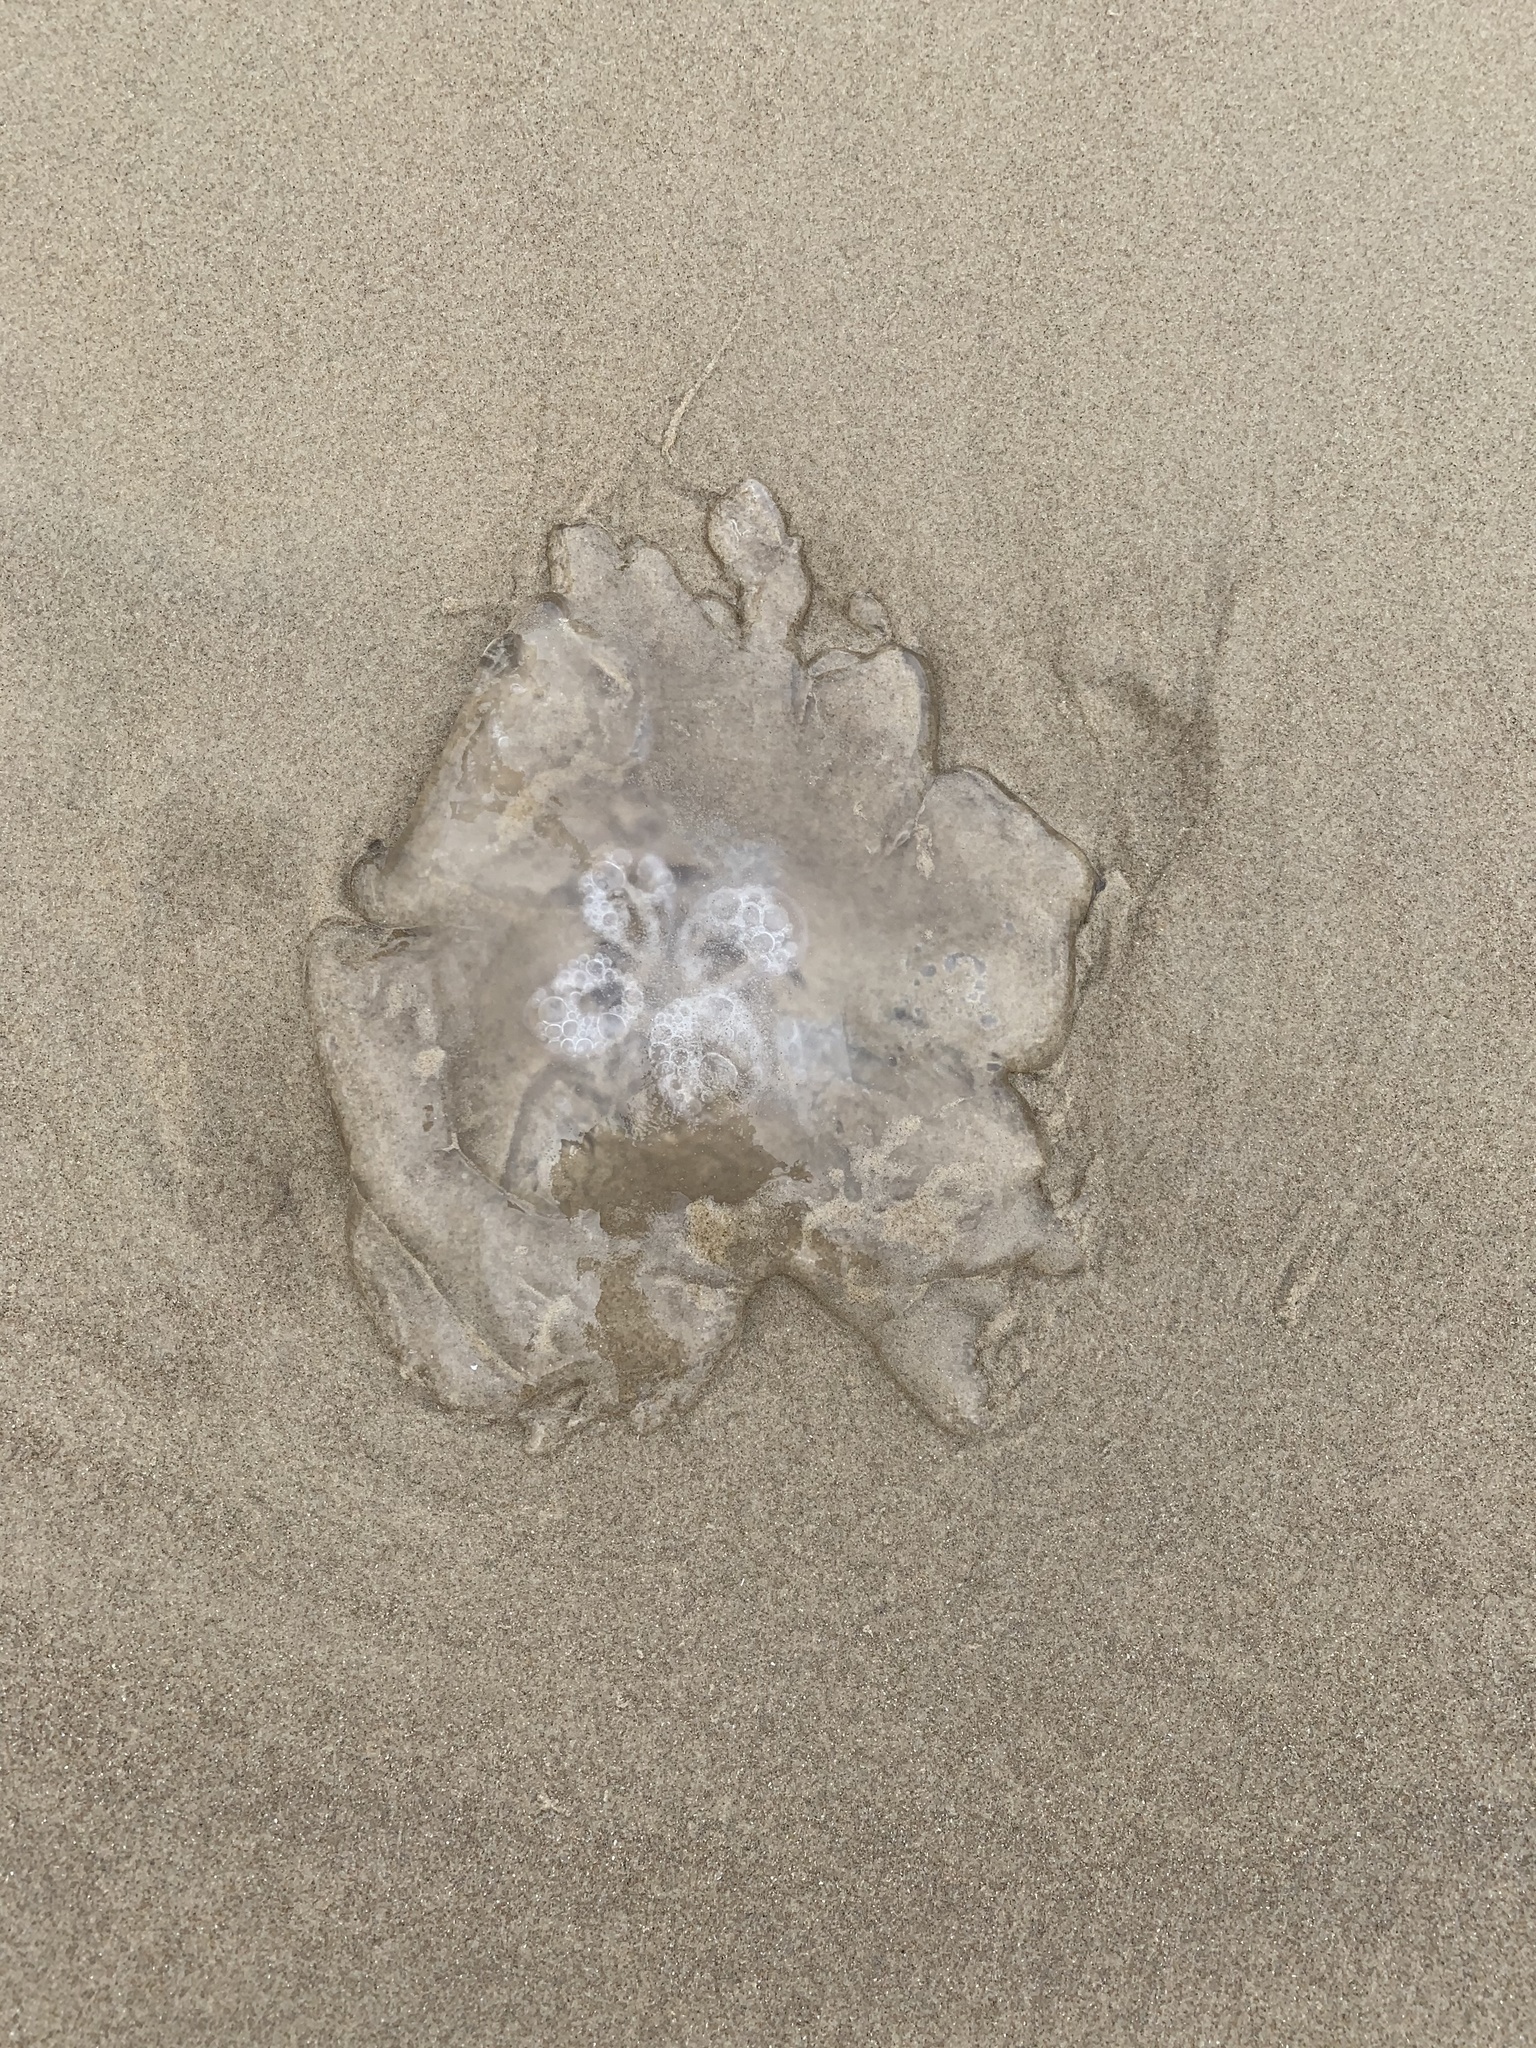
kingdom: Animalia
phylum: Cnidaria
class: Scyphozoa
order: Semaeostomeae
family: Ulmaridae
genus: Aurelia
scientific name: Aurelia marginalis
